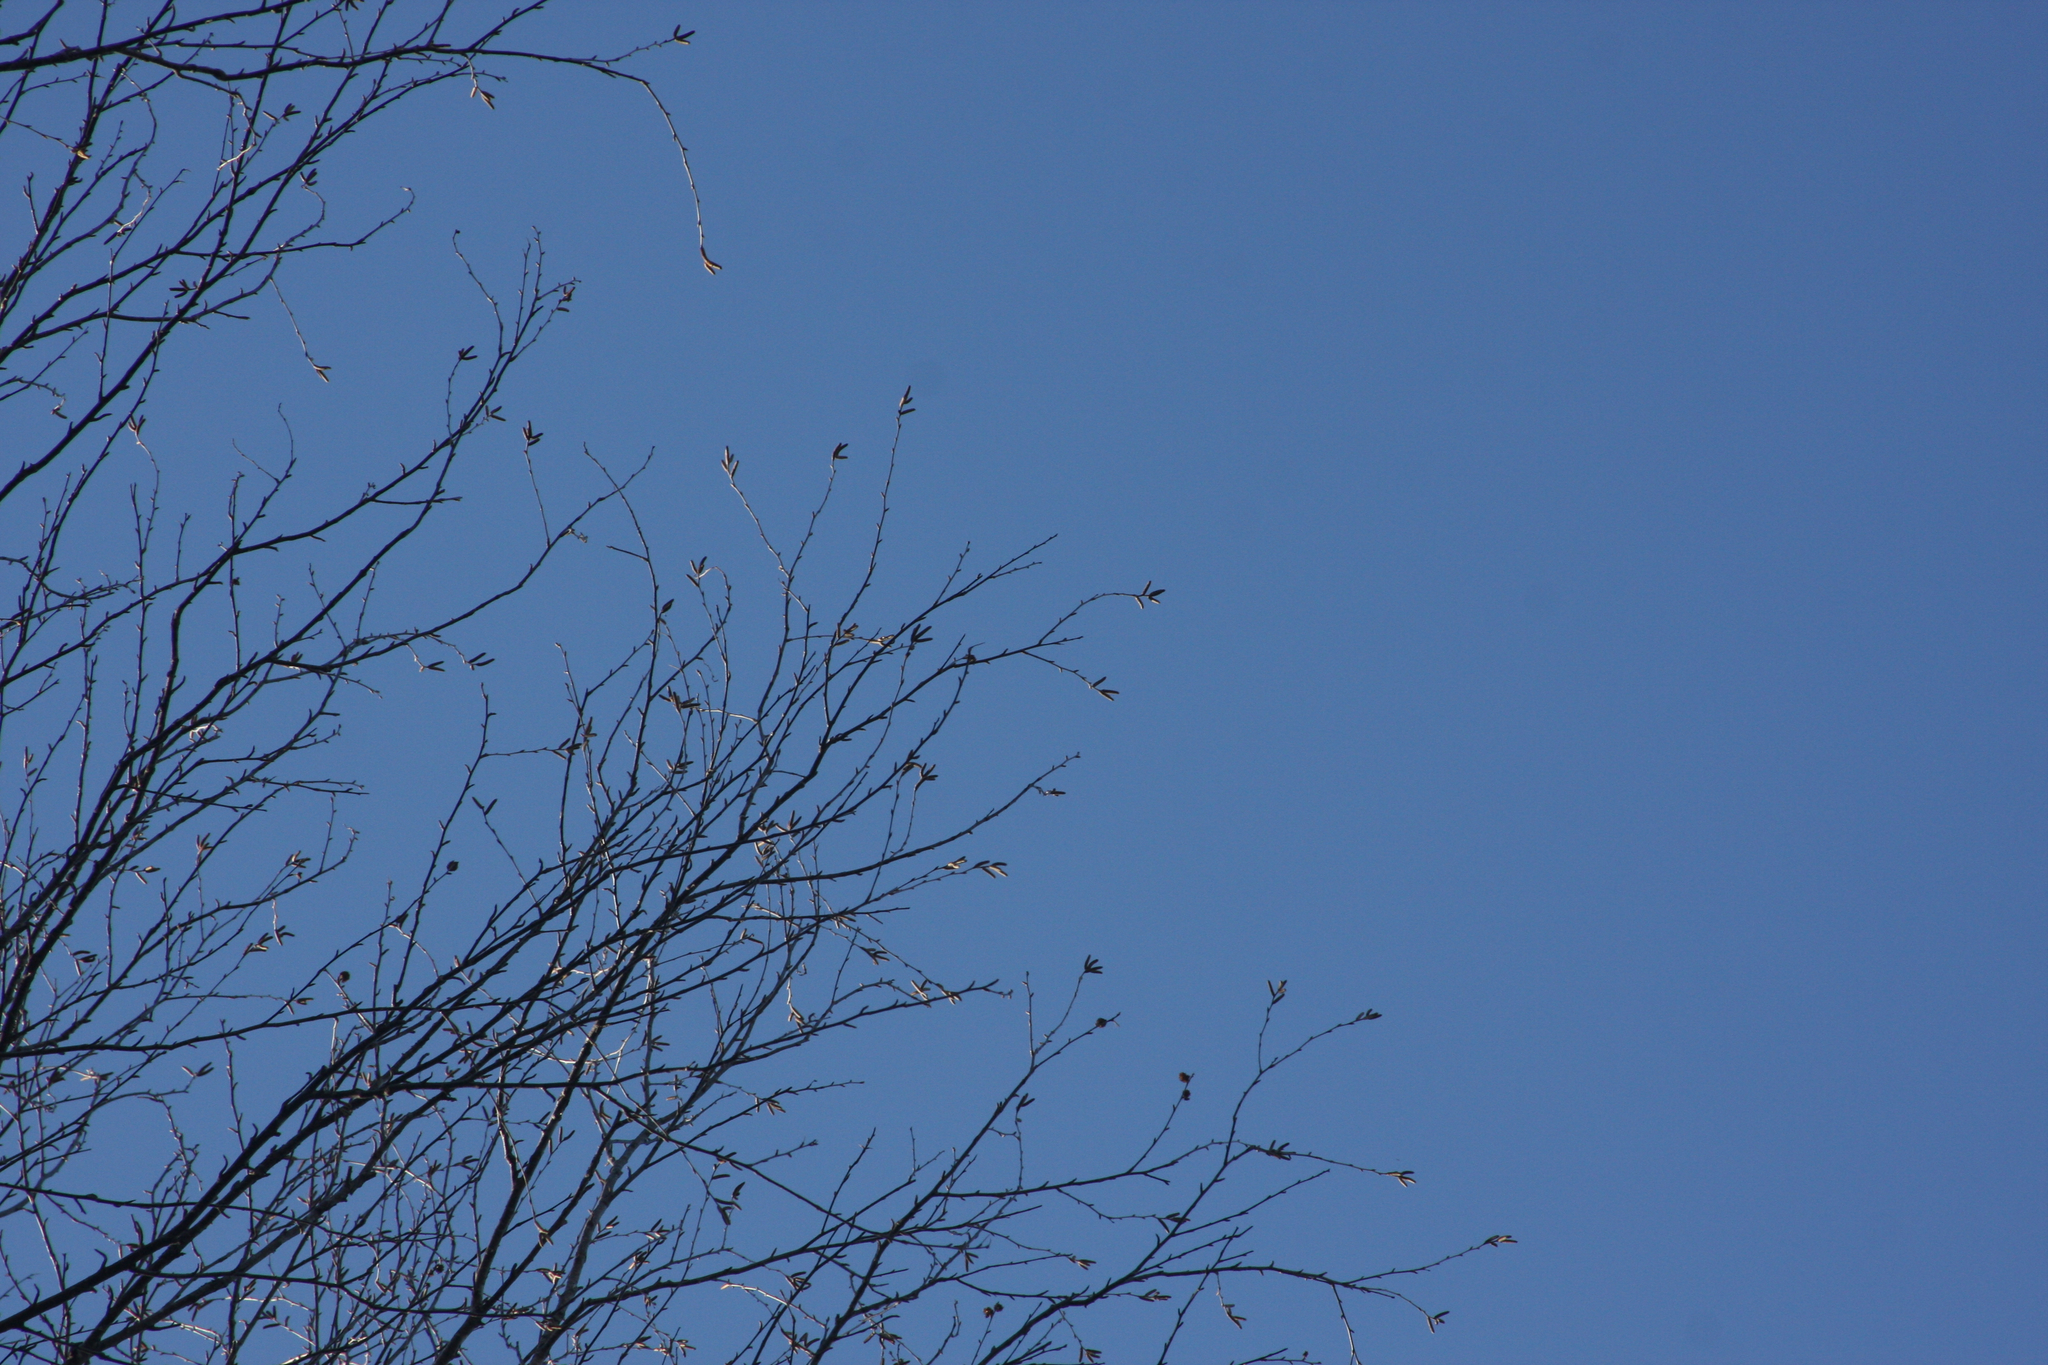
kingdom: Plantae
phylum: Tracheophyta
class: Magnoliopsida
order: Fagales
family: Betulaceae
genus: Betula
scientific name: Betula alleghaniensis
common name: Yellow birch
